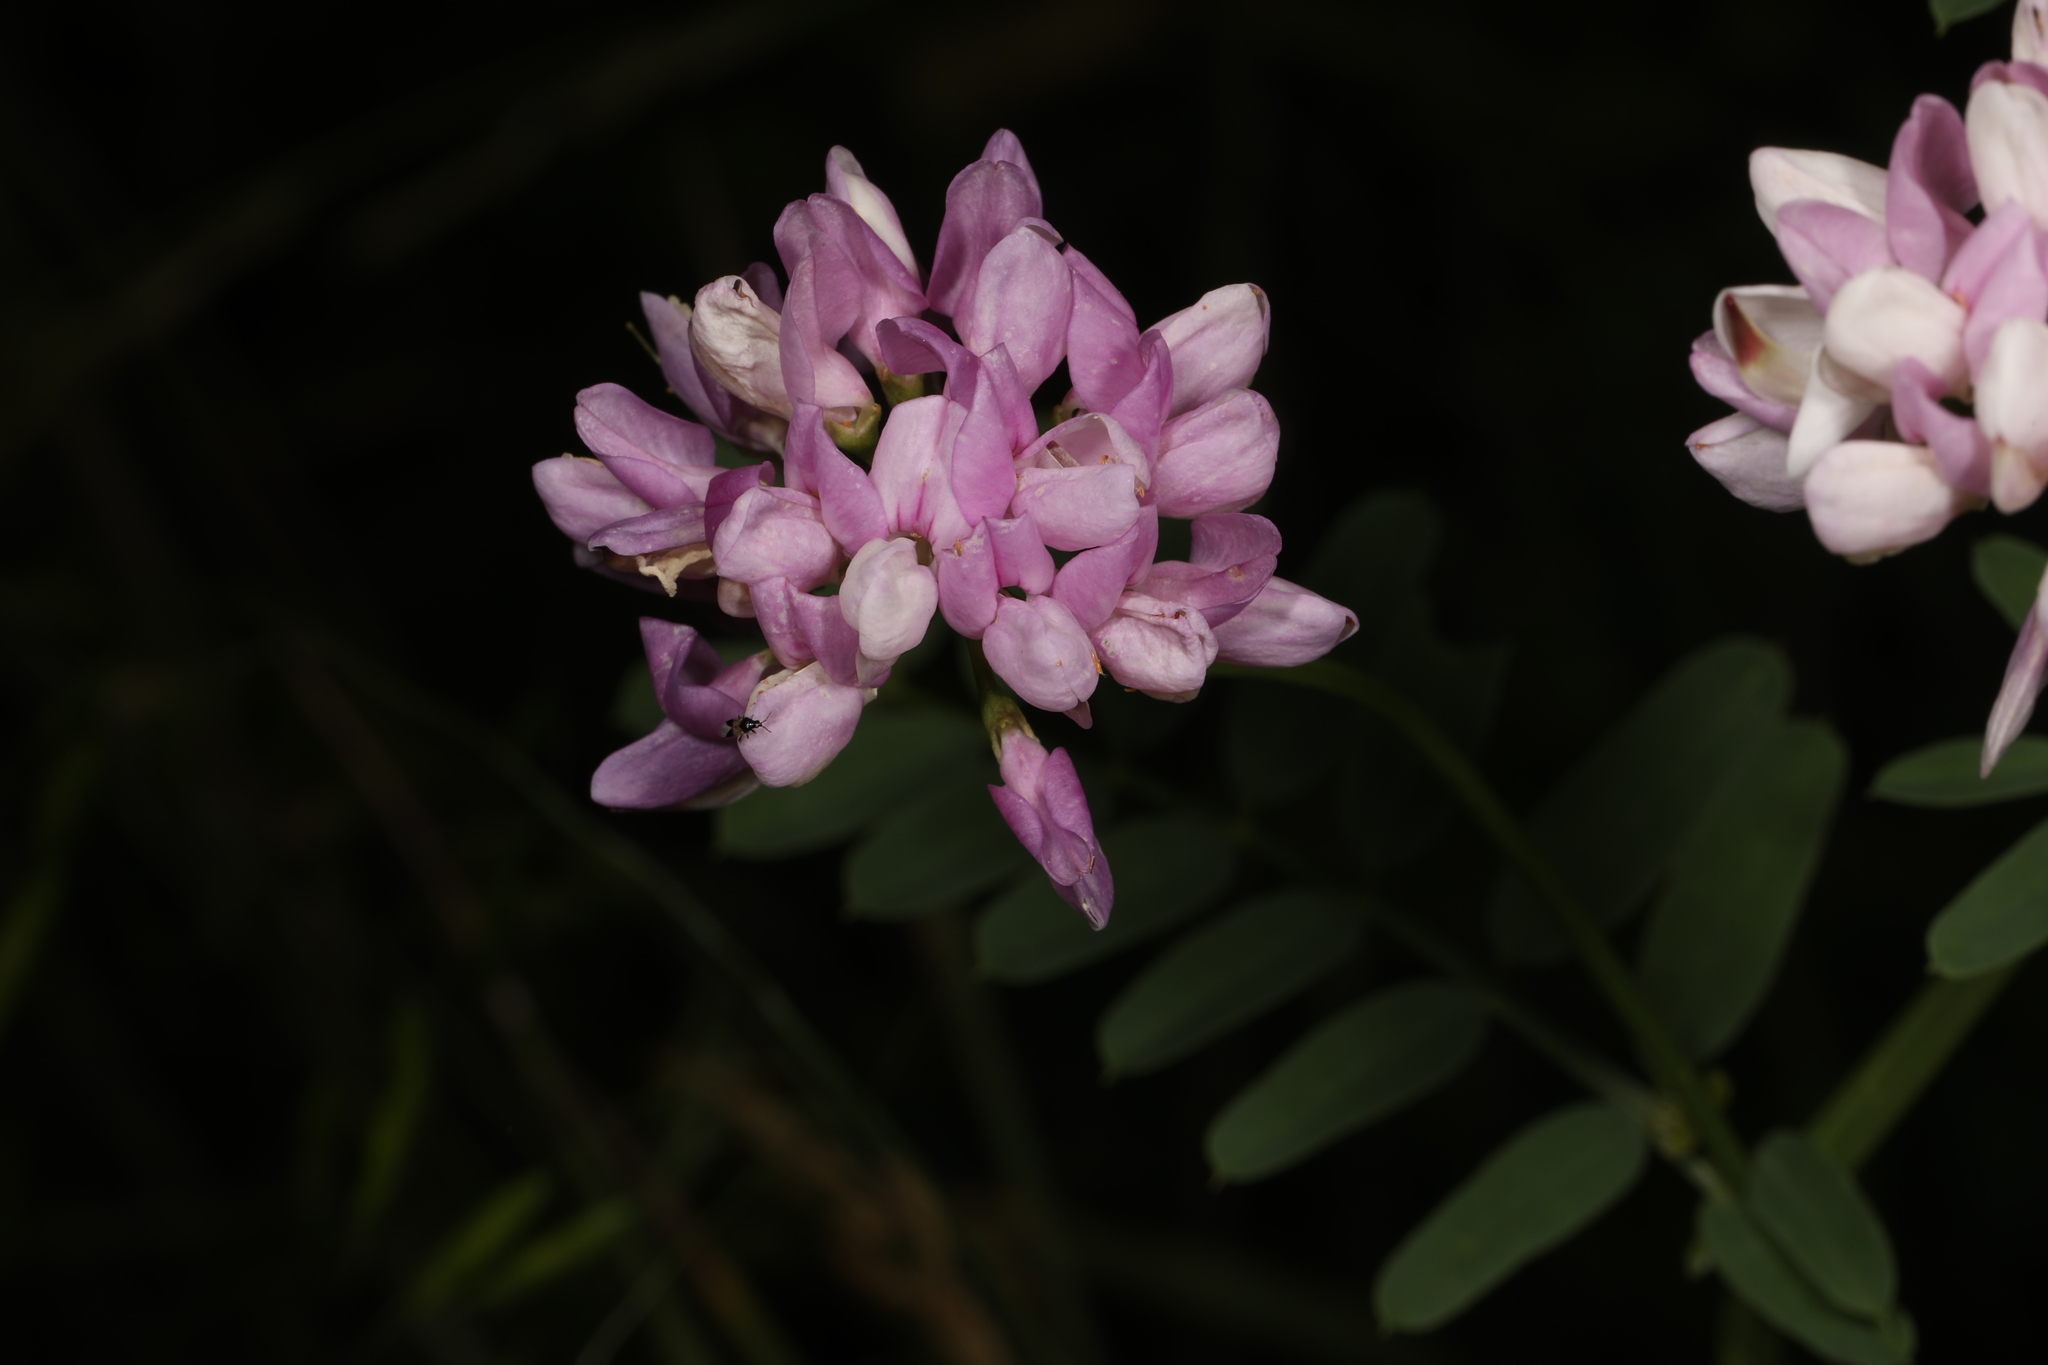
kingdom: Plantae
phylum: Tracheophyta
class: Magnoliopsida
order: Fabales
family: Fabaceae
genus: Coronilla
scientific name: Coronilla varia
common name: Crownvetch
